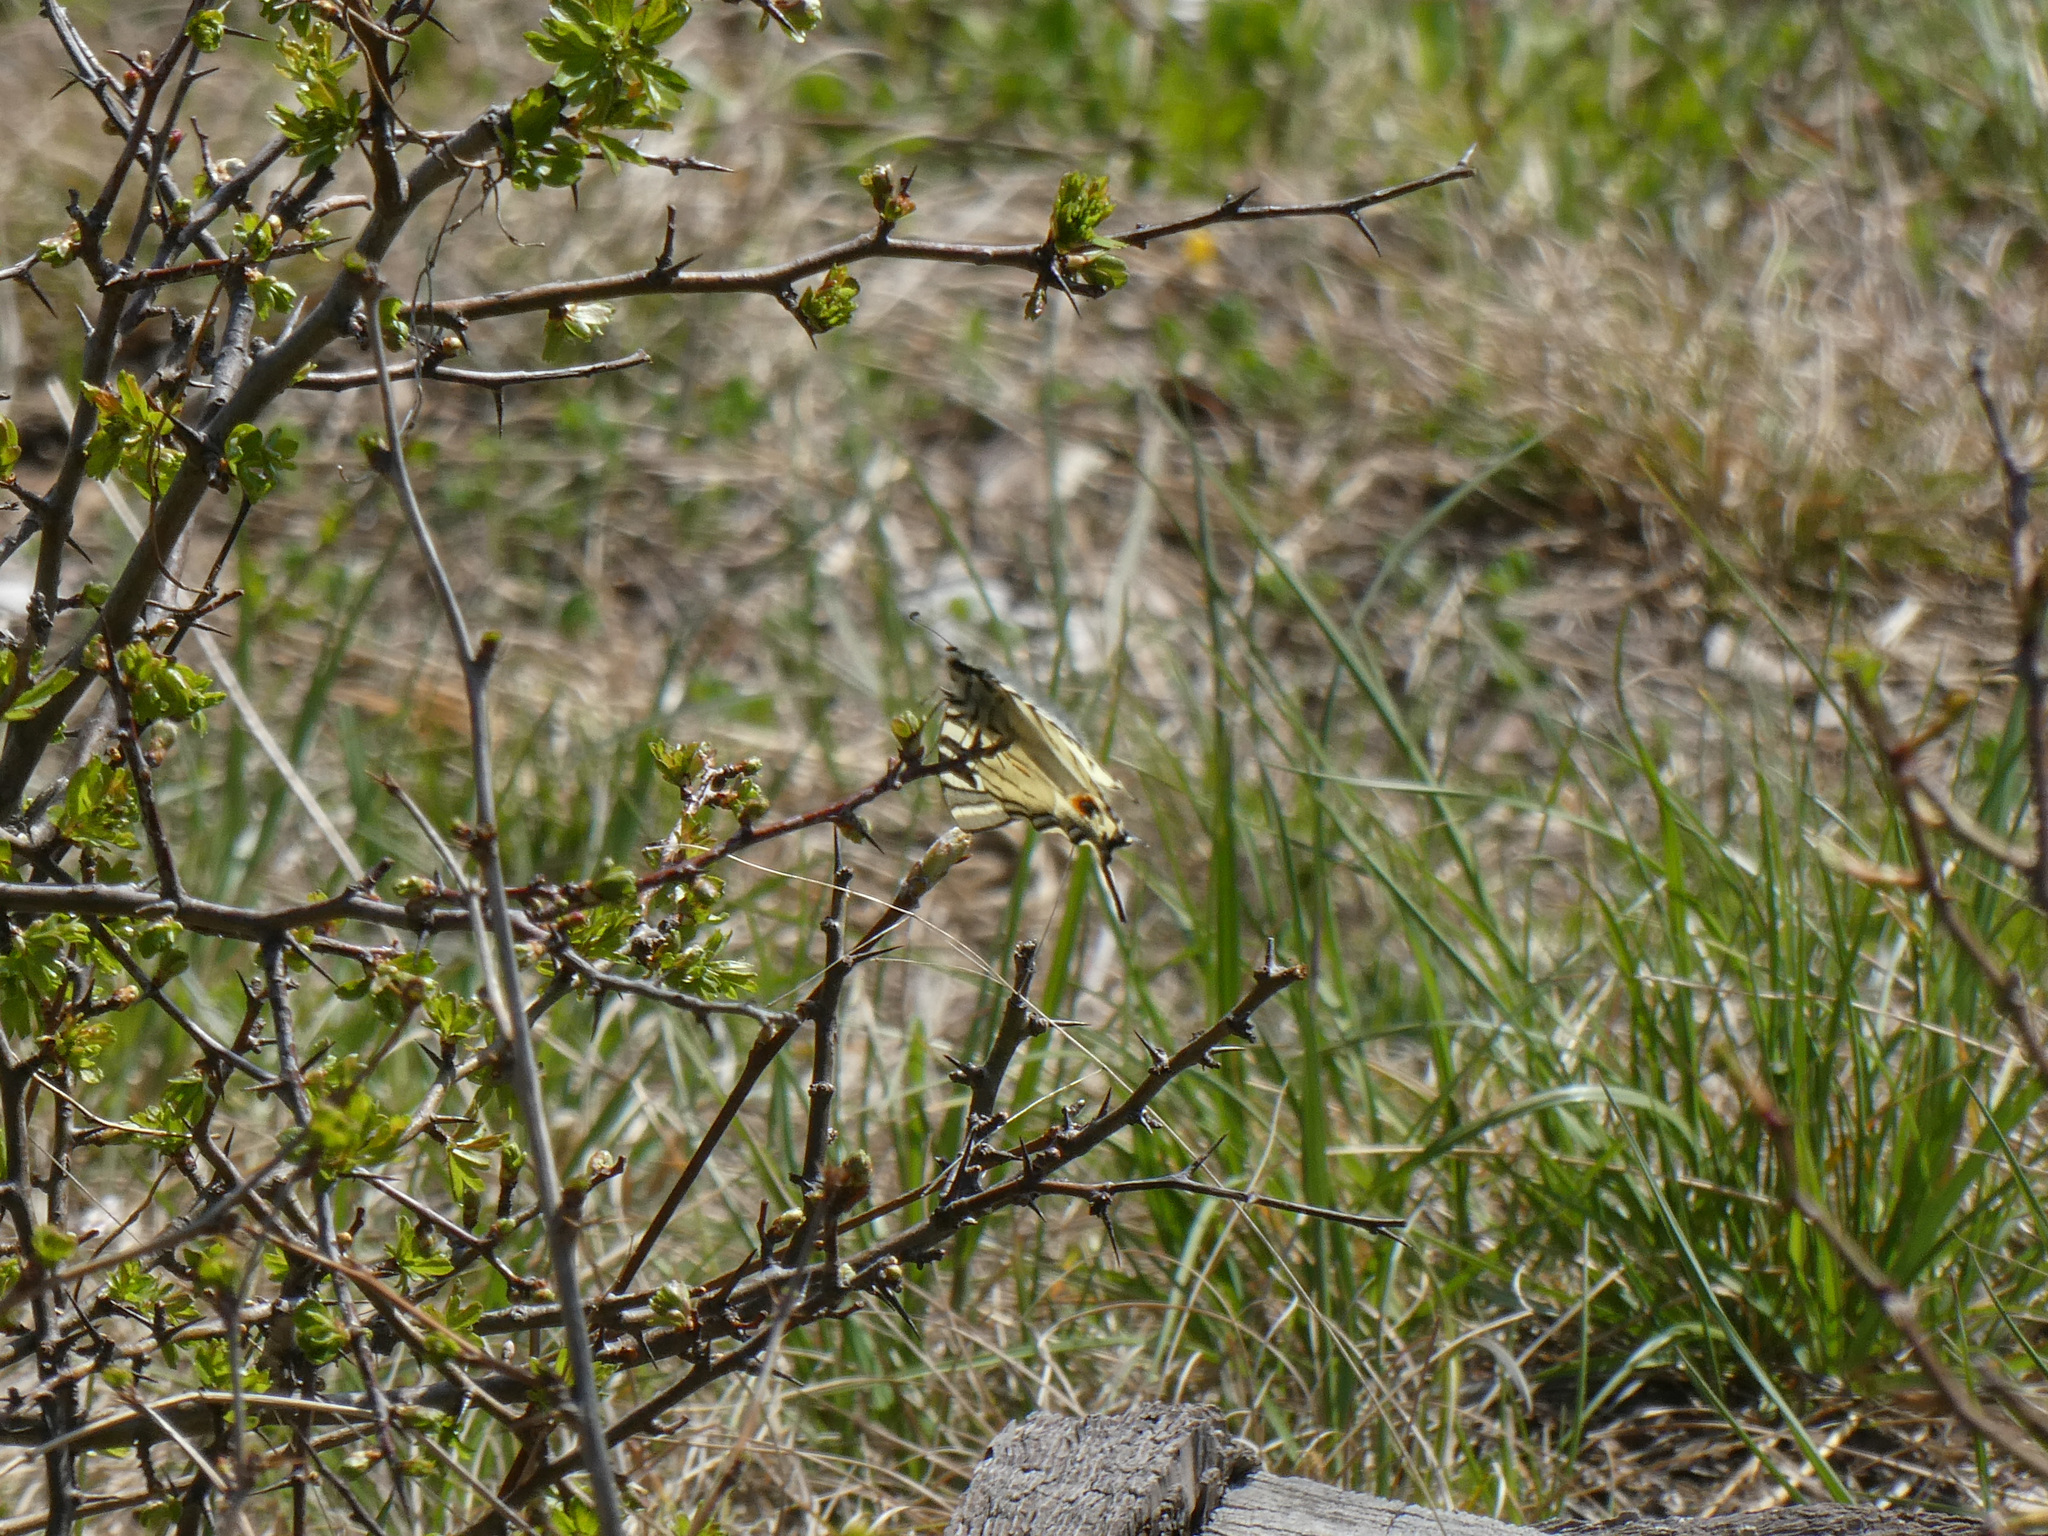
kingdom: Animalia
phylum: Arthropoda
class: Insecta
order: Lepidoptera
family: Papilionidae
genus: Iphiclides
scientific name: Iphiclides podalirius
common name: Scarce swallowtail
